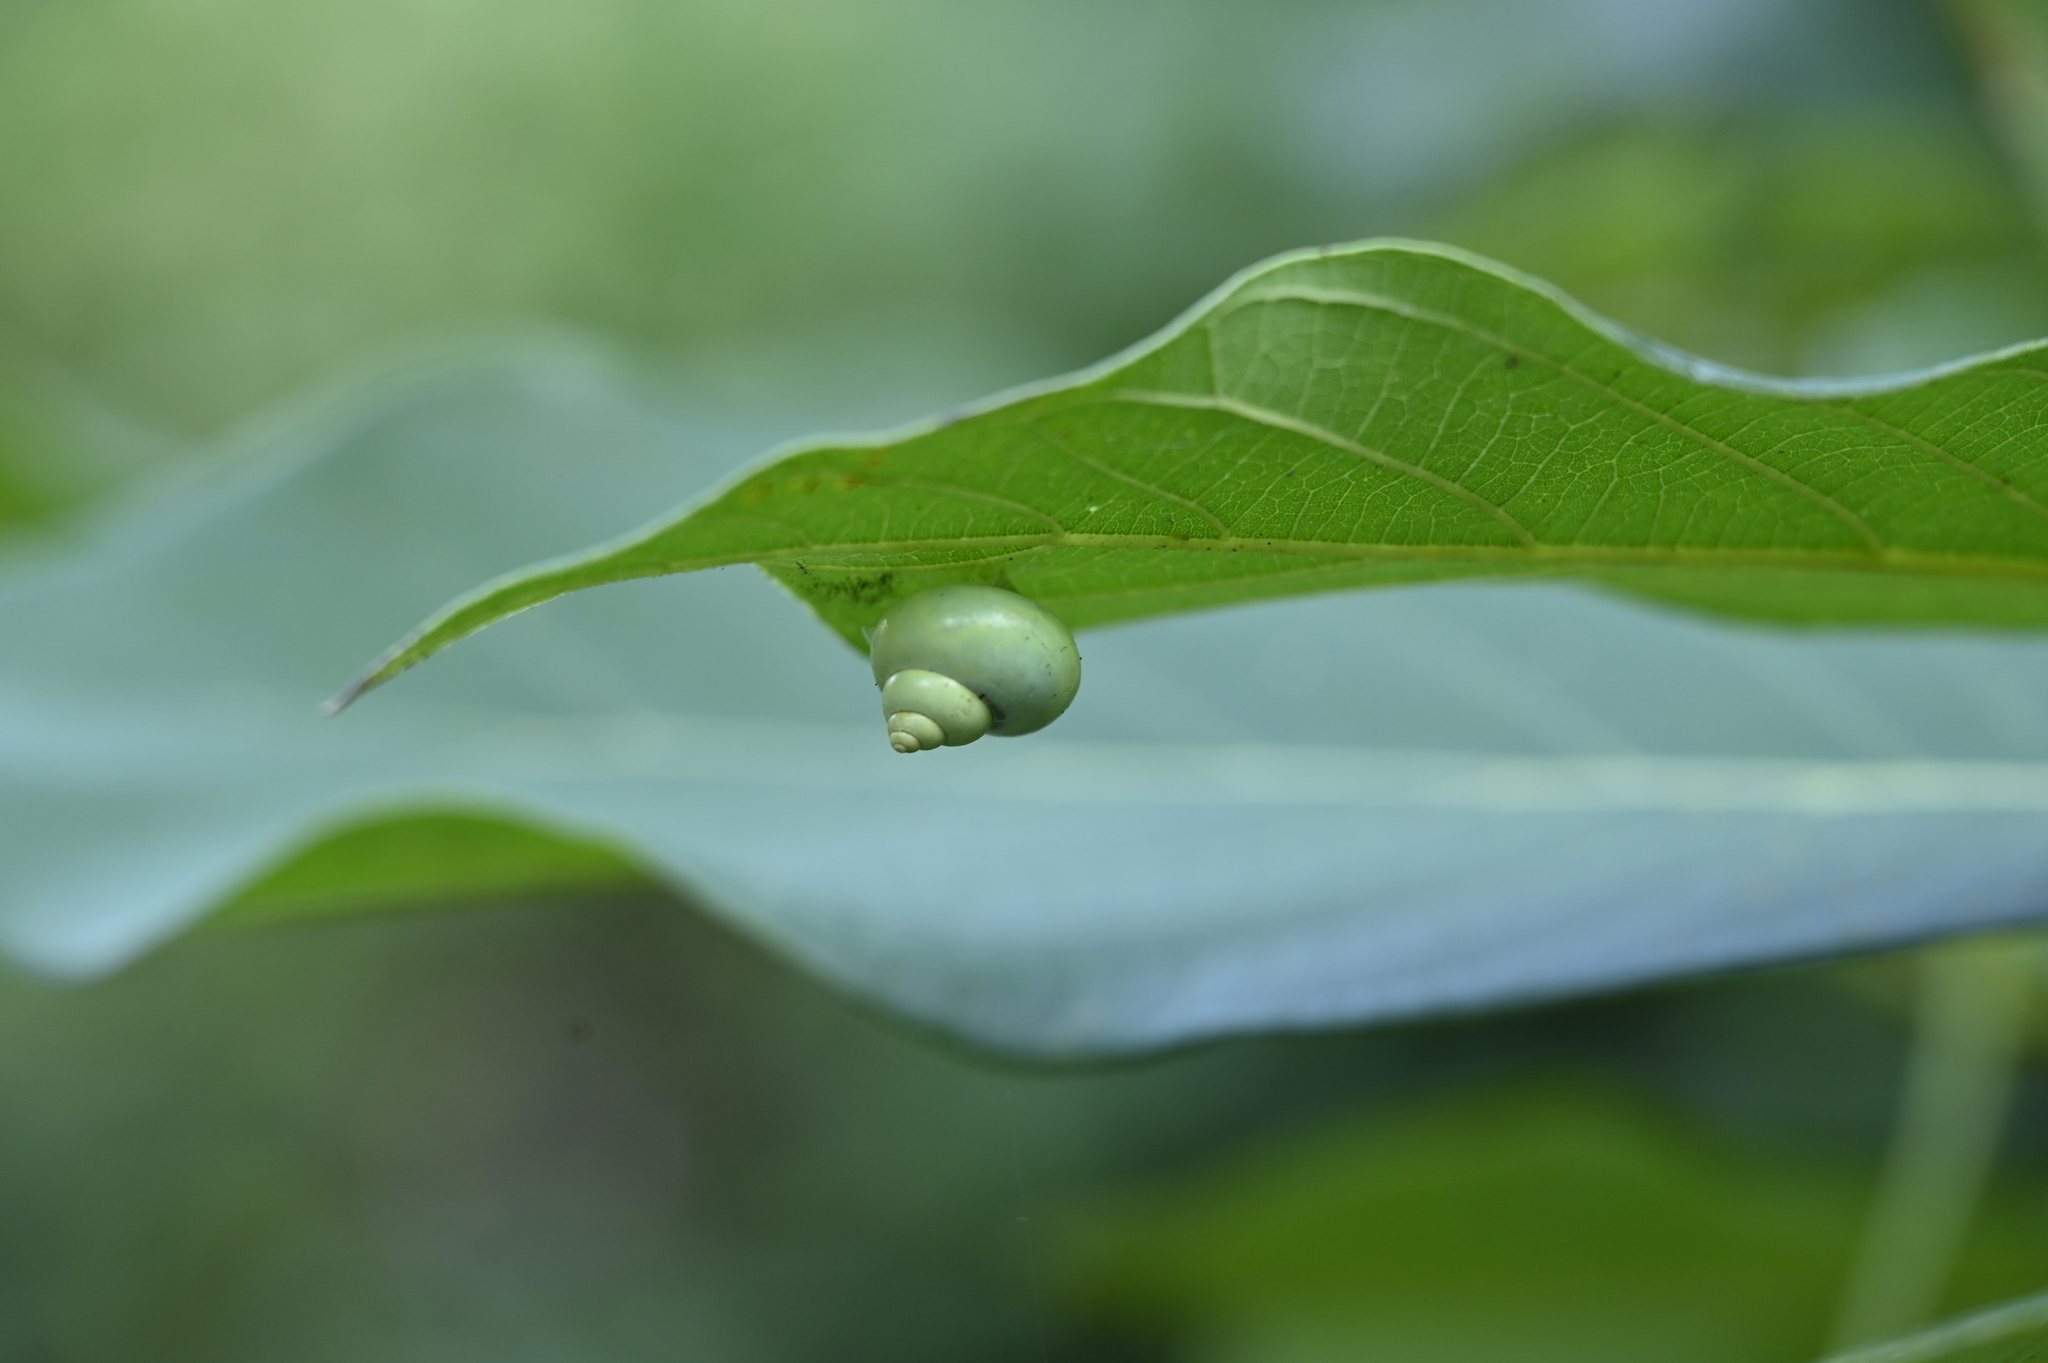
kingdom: Animalia
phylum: Mollusca
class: Gastropoda
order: Architaenioglossa
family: Cyclophoridae
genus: Leptopoma
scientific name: Leptopoma nitidum
